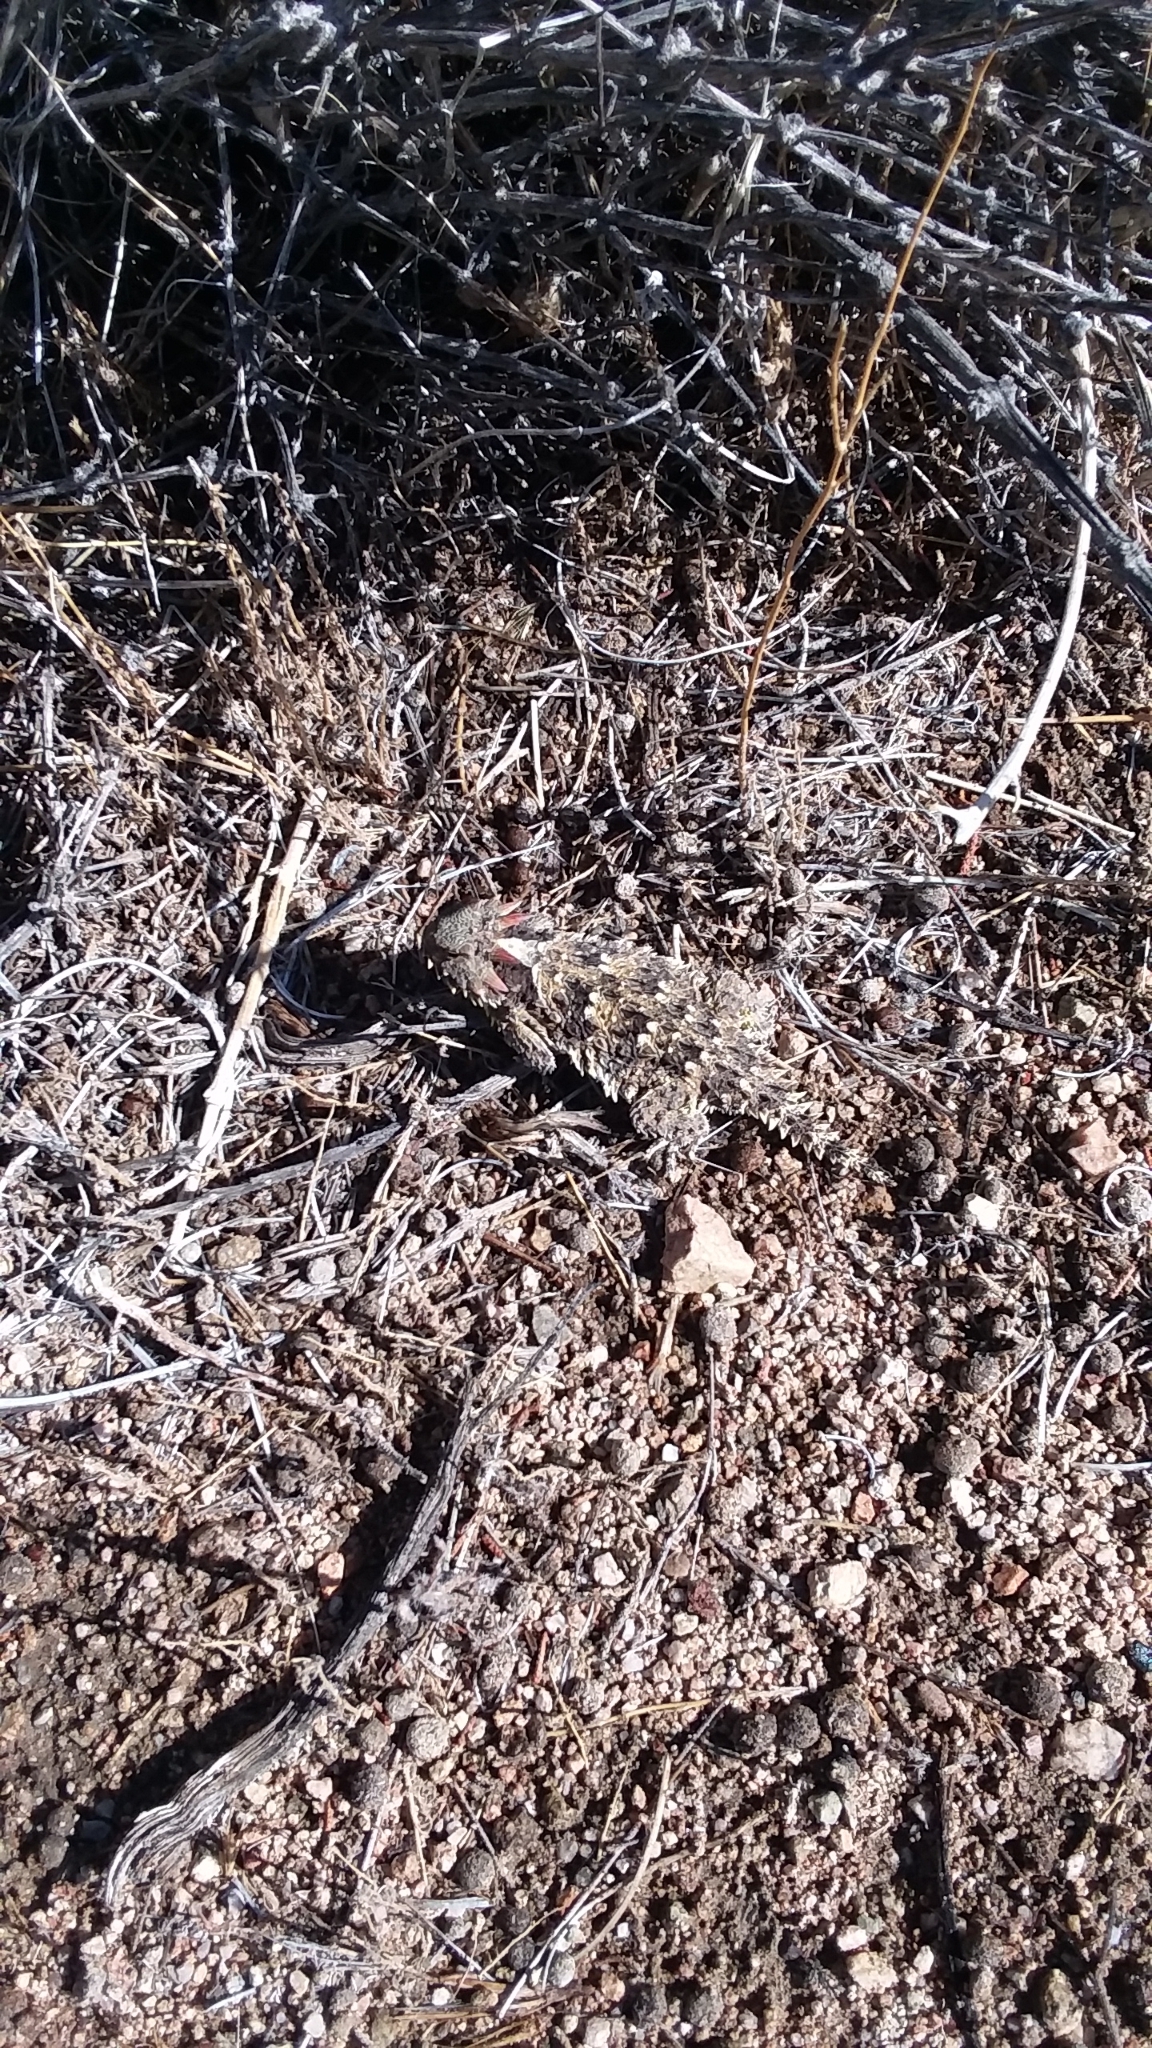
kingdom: Animalia
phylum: Chordata
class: Squamata
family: Phrynosomatidae
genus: Phrynosoma
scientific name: Phrynosoma blainvillii
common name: San diego horned lizard
